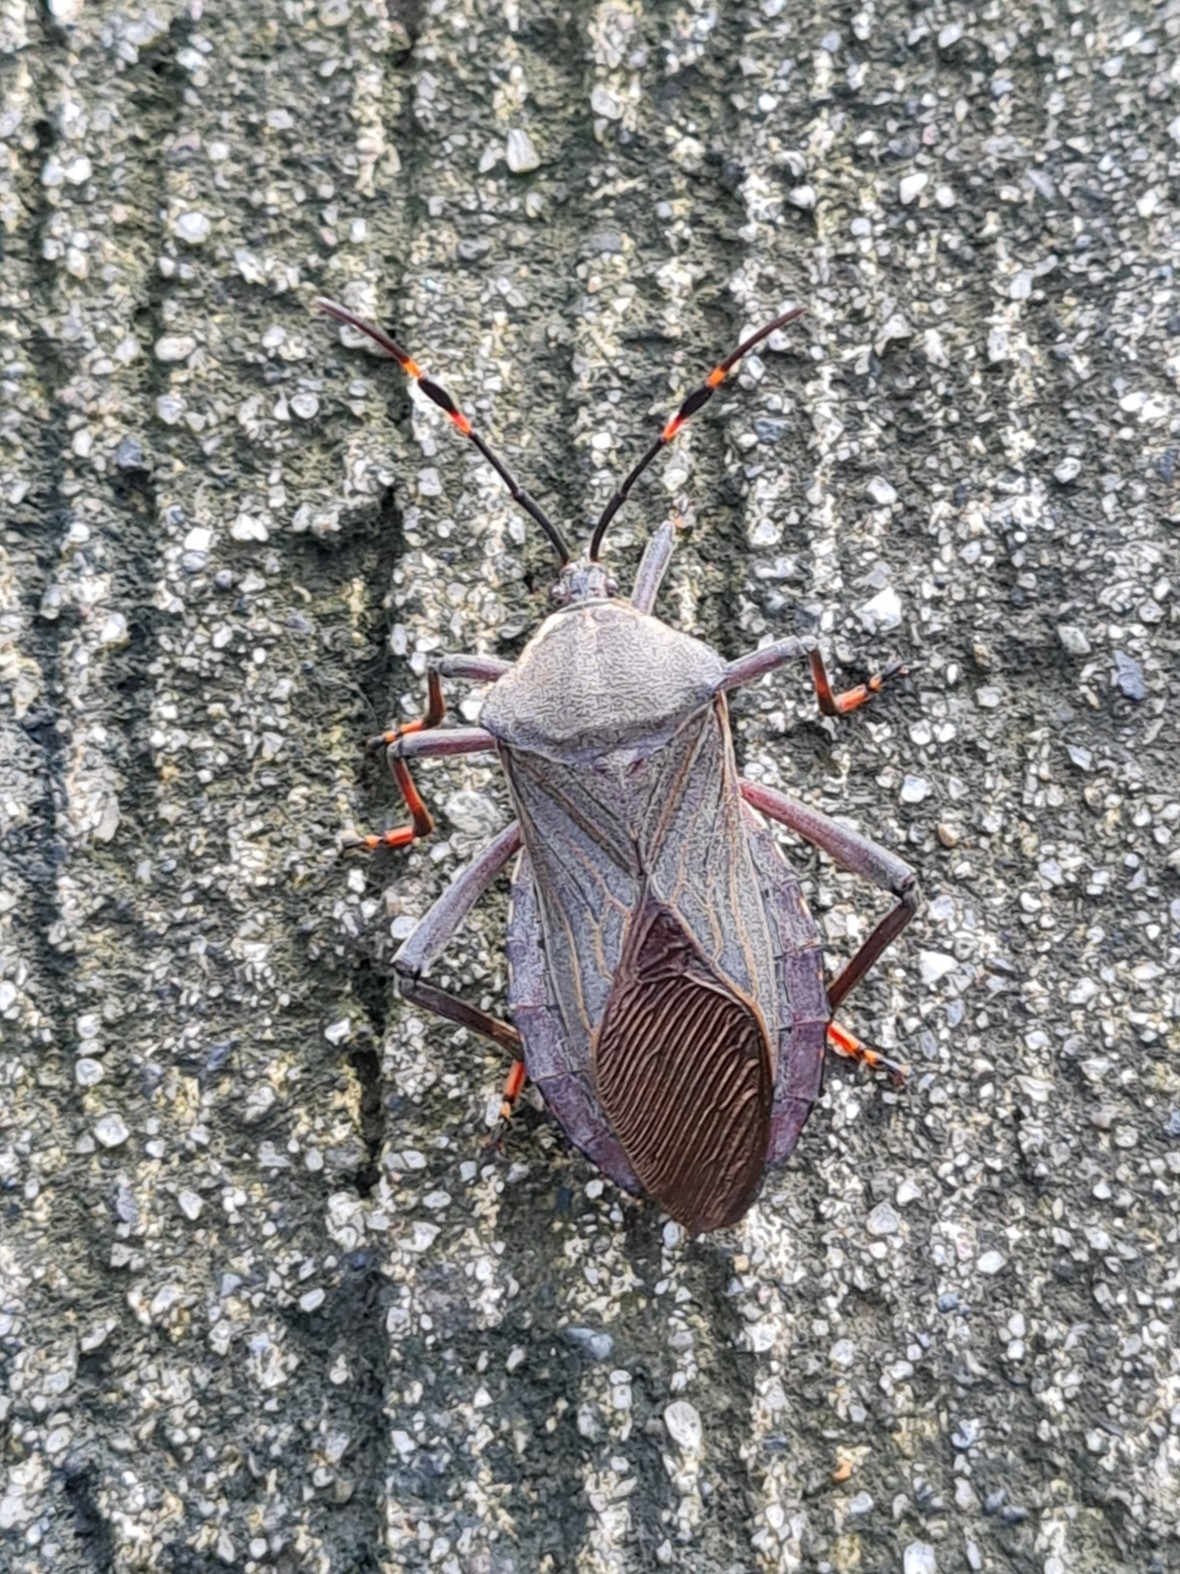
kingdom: Animalia
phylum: Arthropoda
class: Insecta
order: Hemiptera
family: Coreidae
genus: Pachylis
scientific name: Pachylis nervosus
